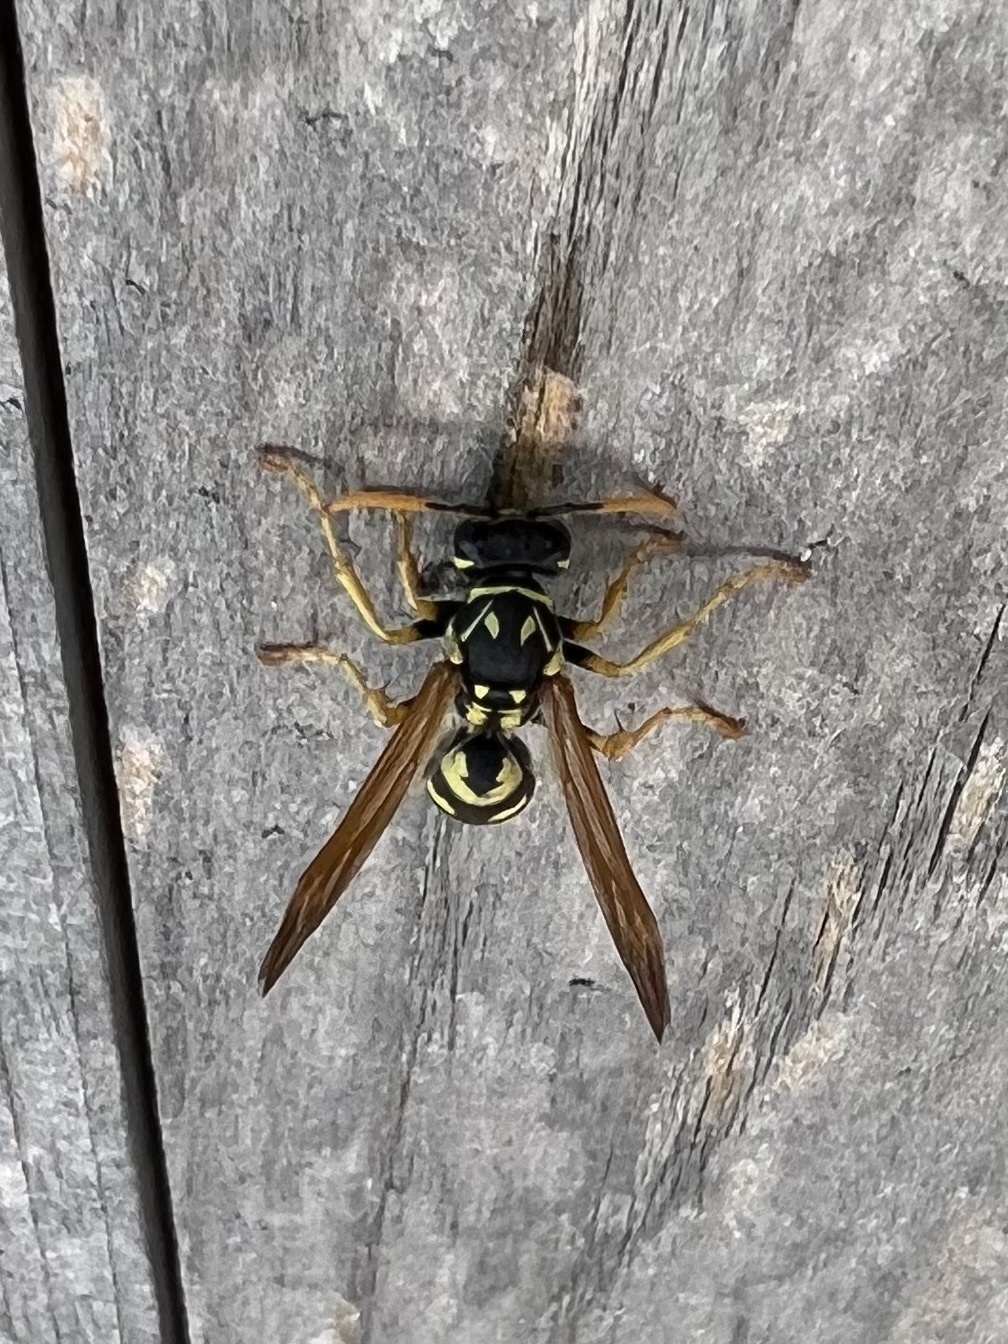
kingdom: Animalia
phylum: Arthropoda
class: Insecta
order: Hymenoptera
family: Eumenidae
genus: Polistes
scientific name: Polistes dominula
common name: Paper wasp
